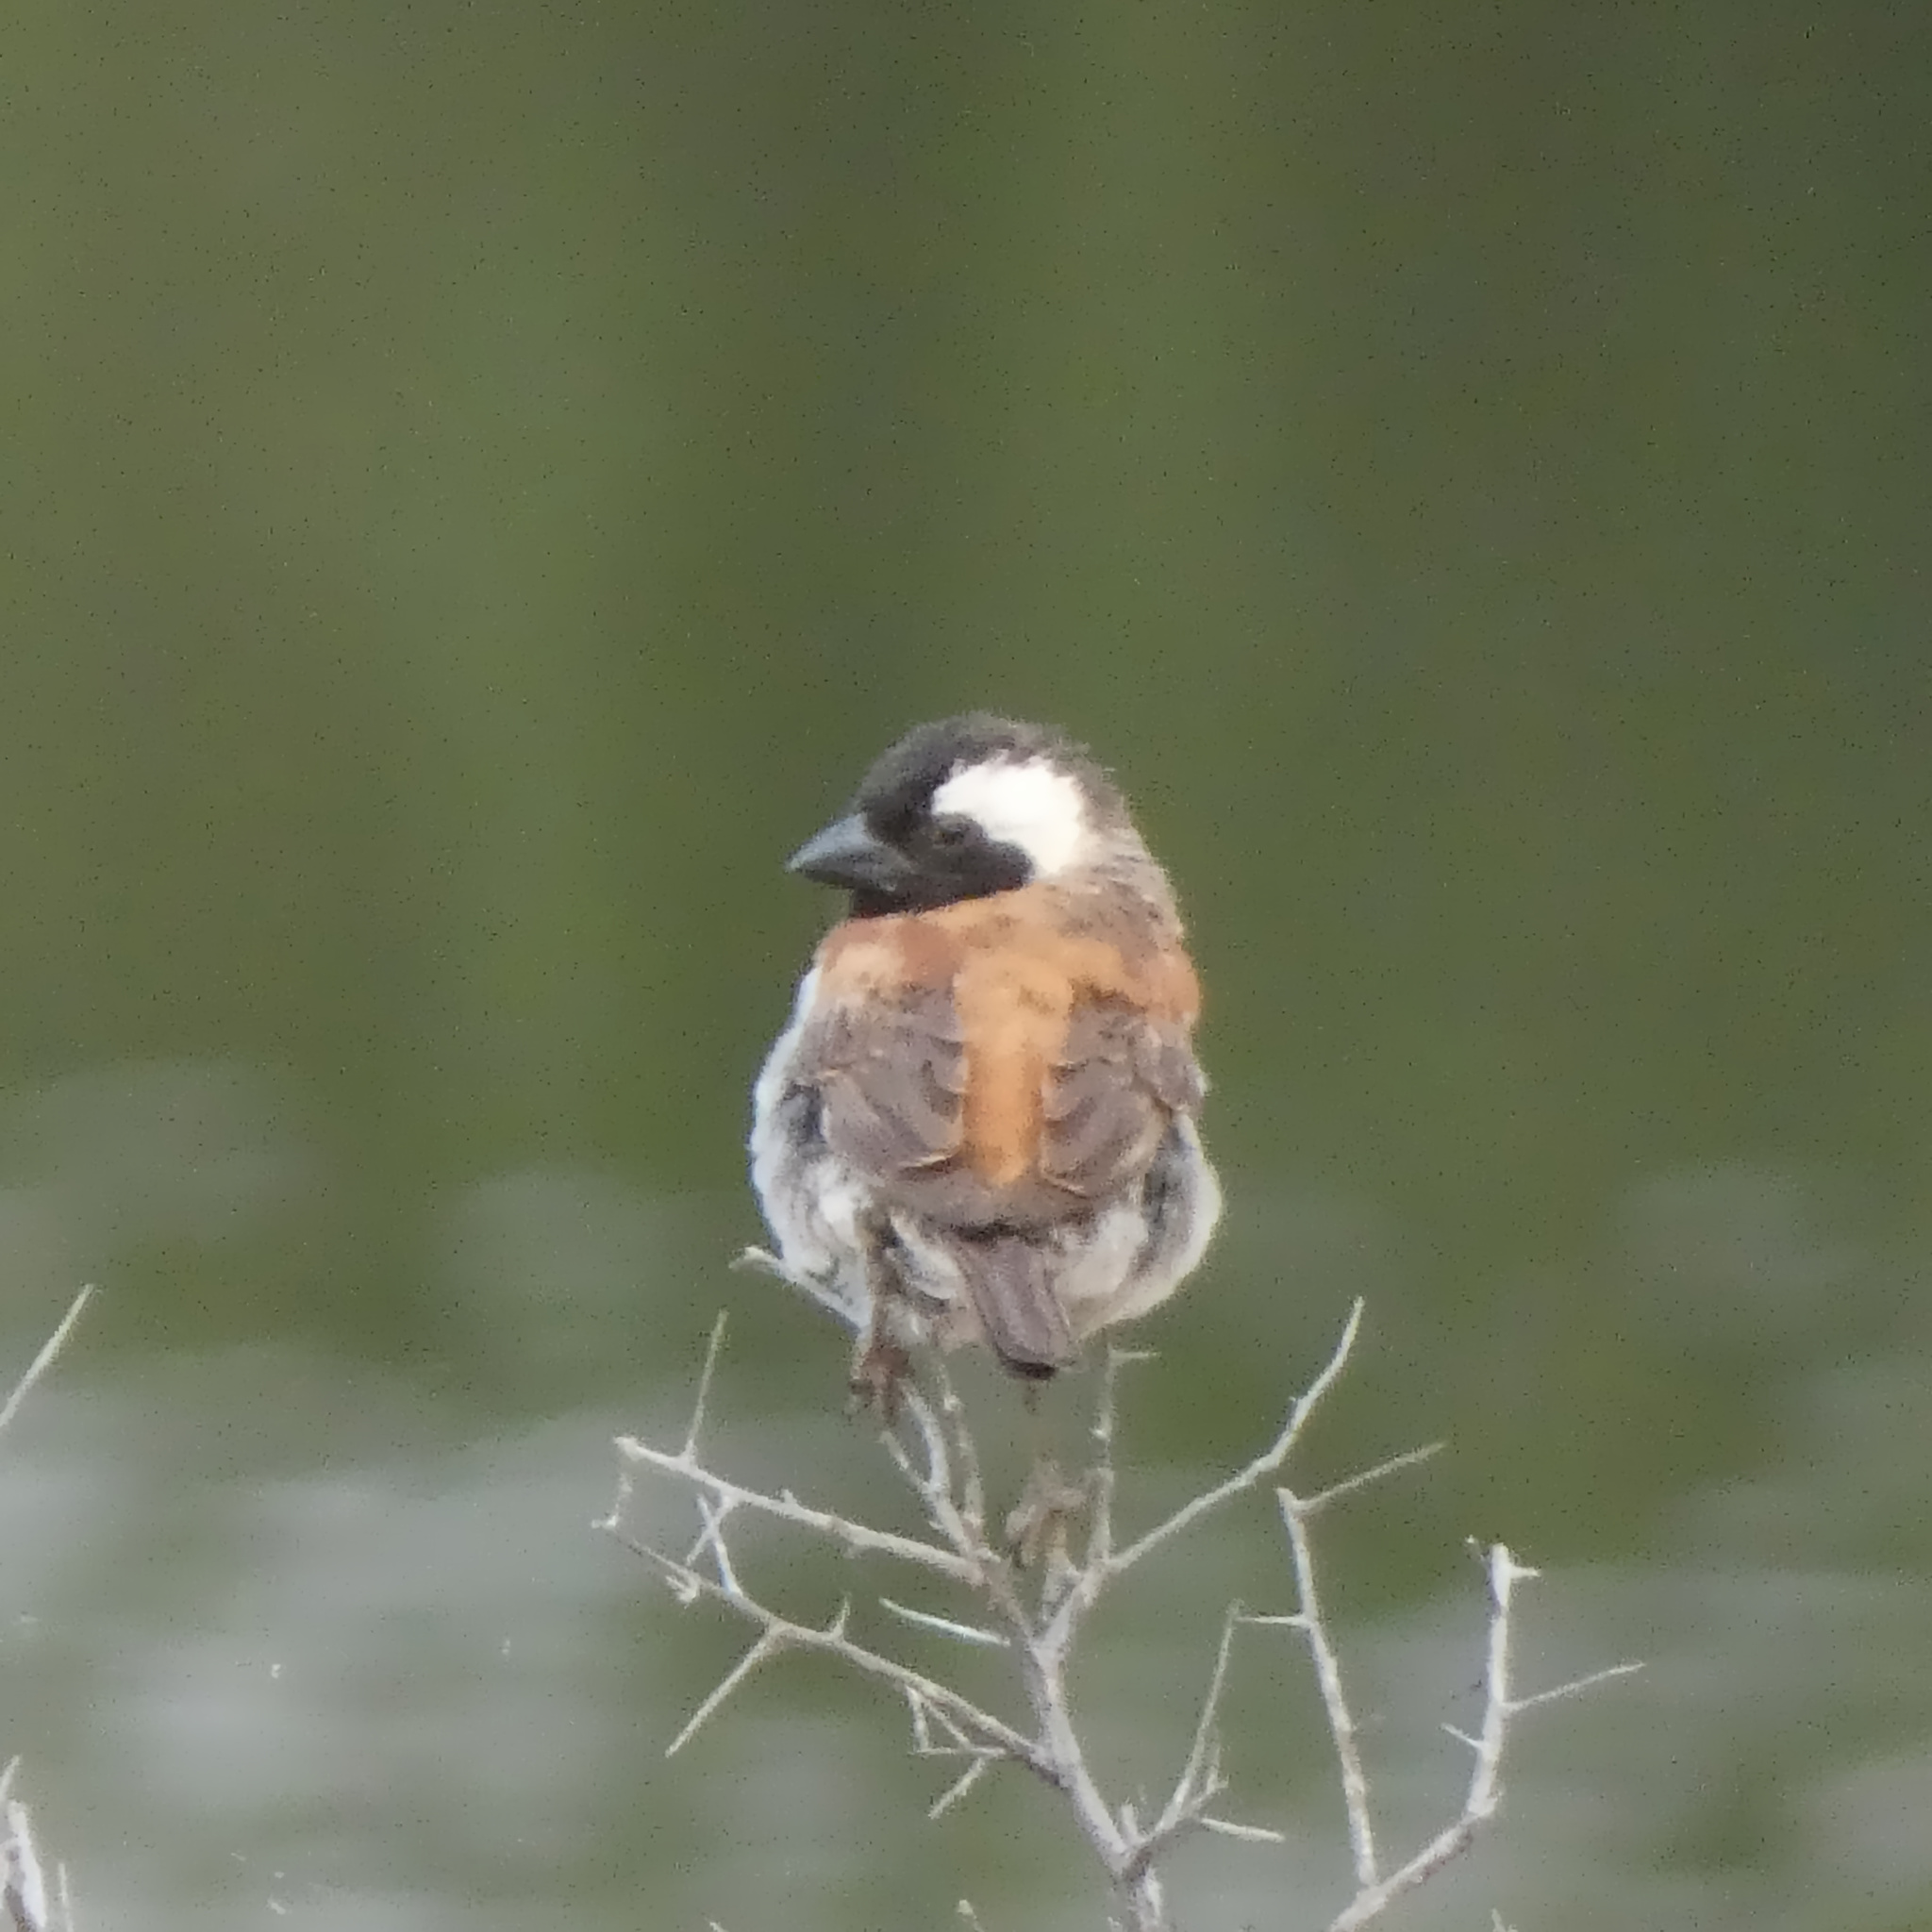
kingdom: Animalia
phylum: Chordata
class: Aves
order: Passeriformes
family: Passeridae
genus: Passer
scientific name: Passer melanurus
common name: Cape sparrow
